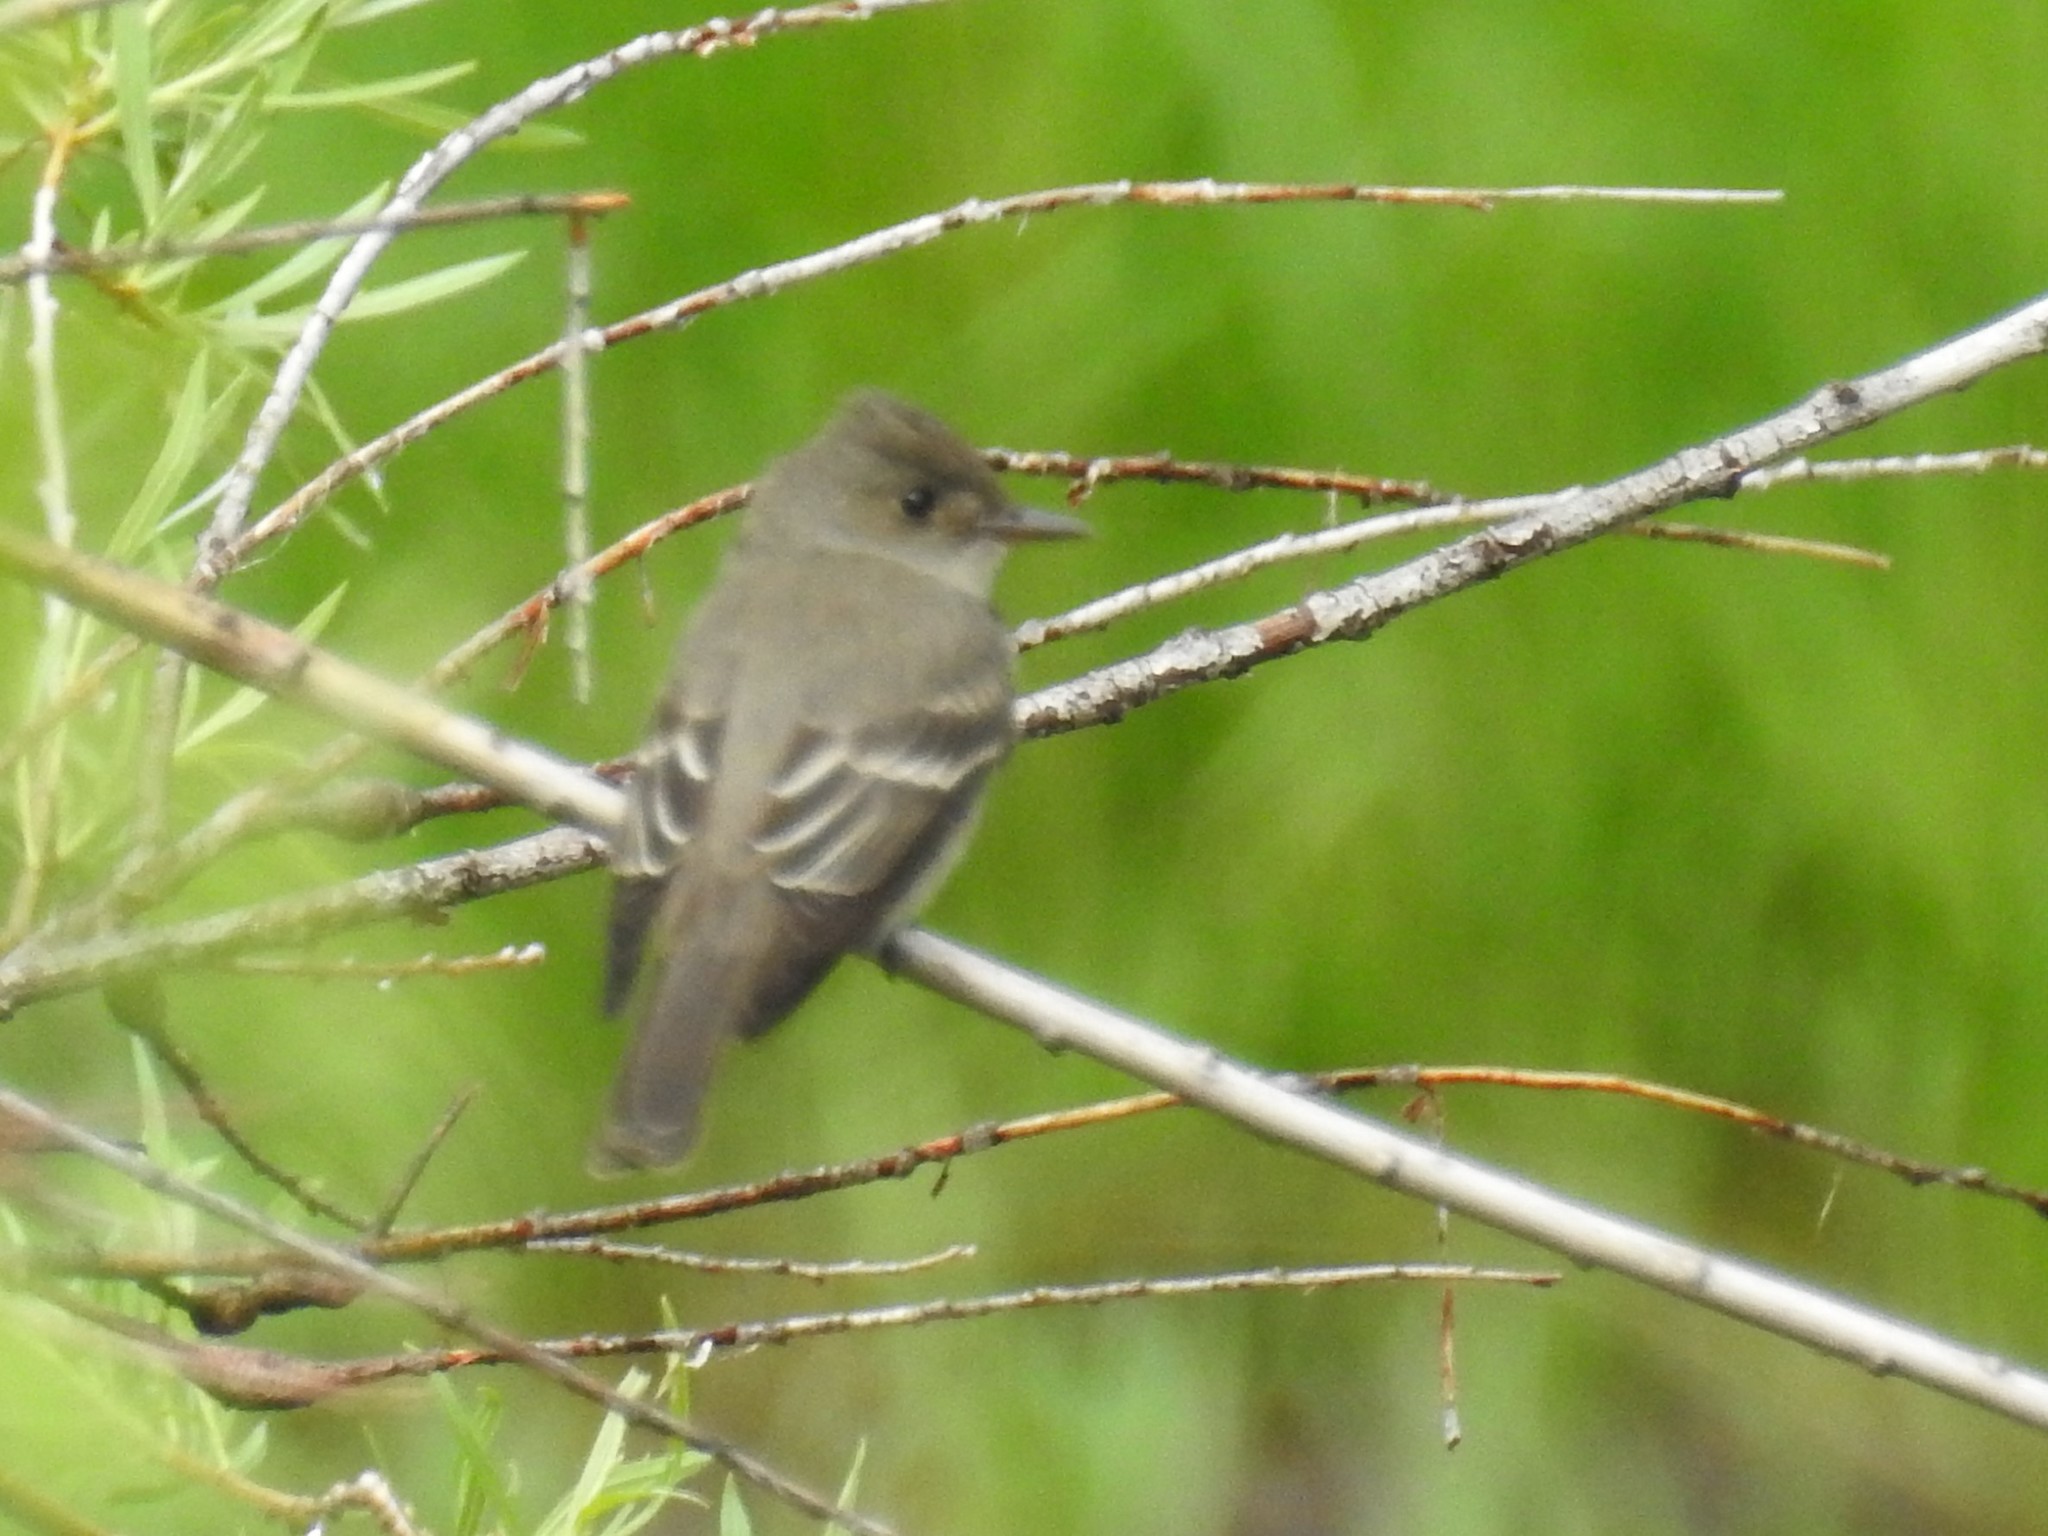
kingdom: Animalia
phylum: Chordata
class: Aves
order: Passeriformes
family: Tyrannidae
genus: Contopus
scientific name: Contopus sordidulus
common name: Western wood-pewee
